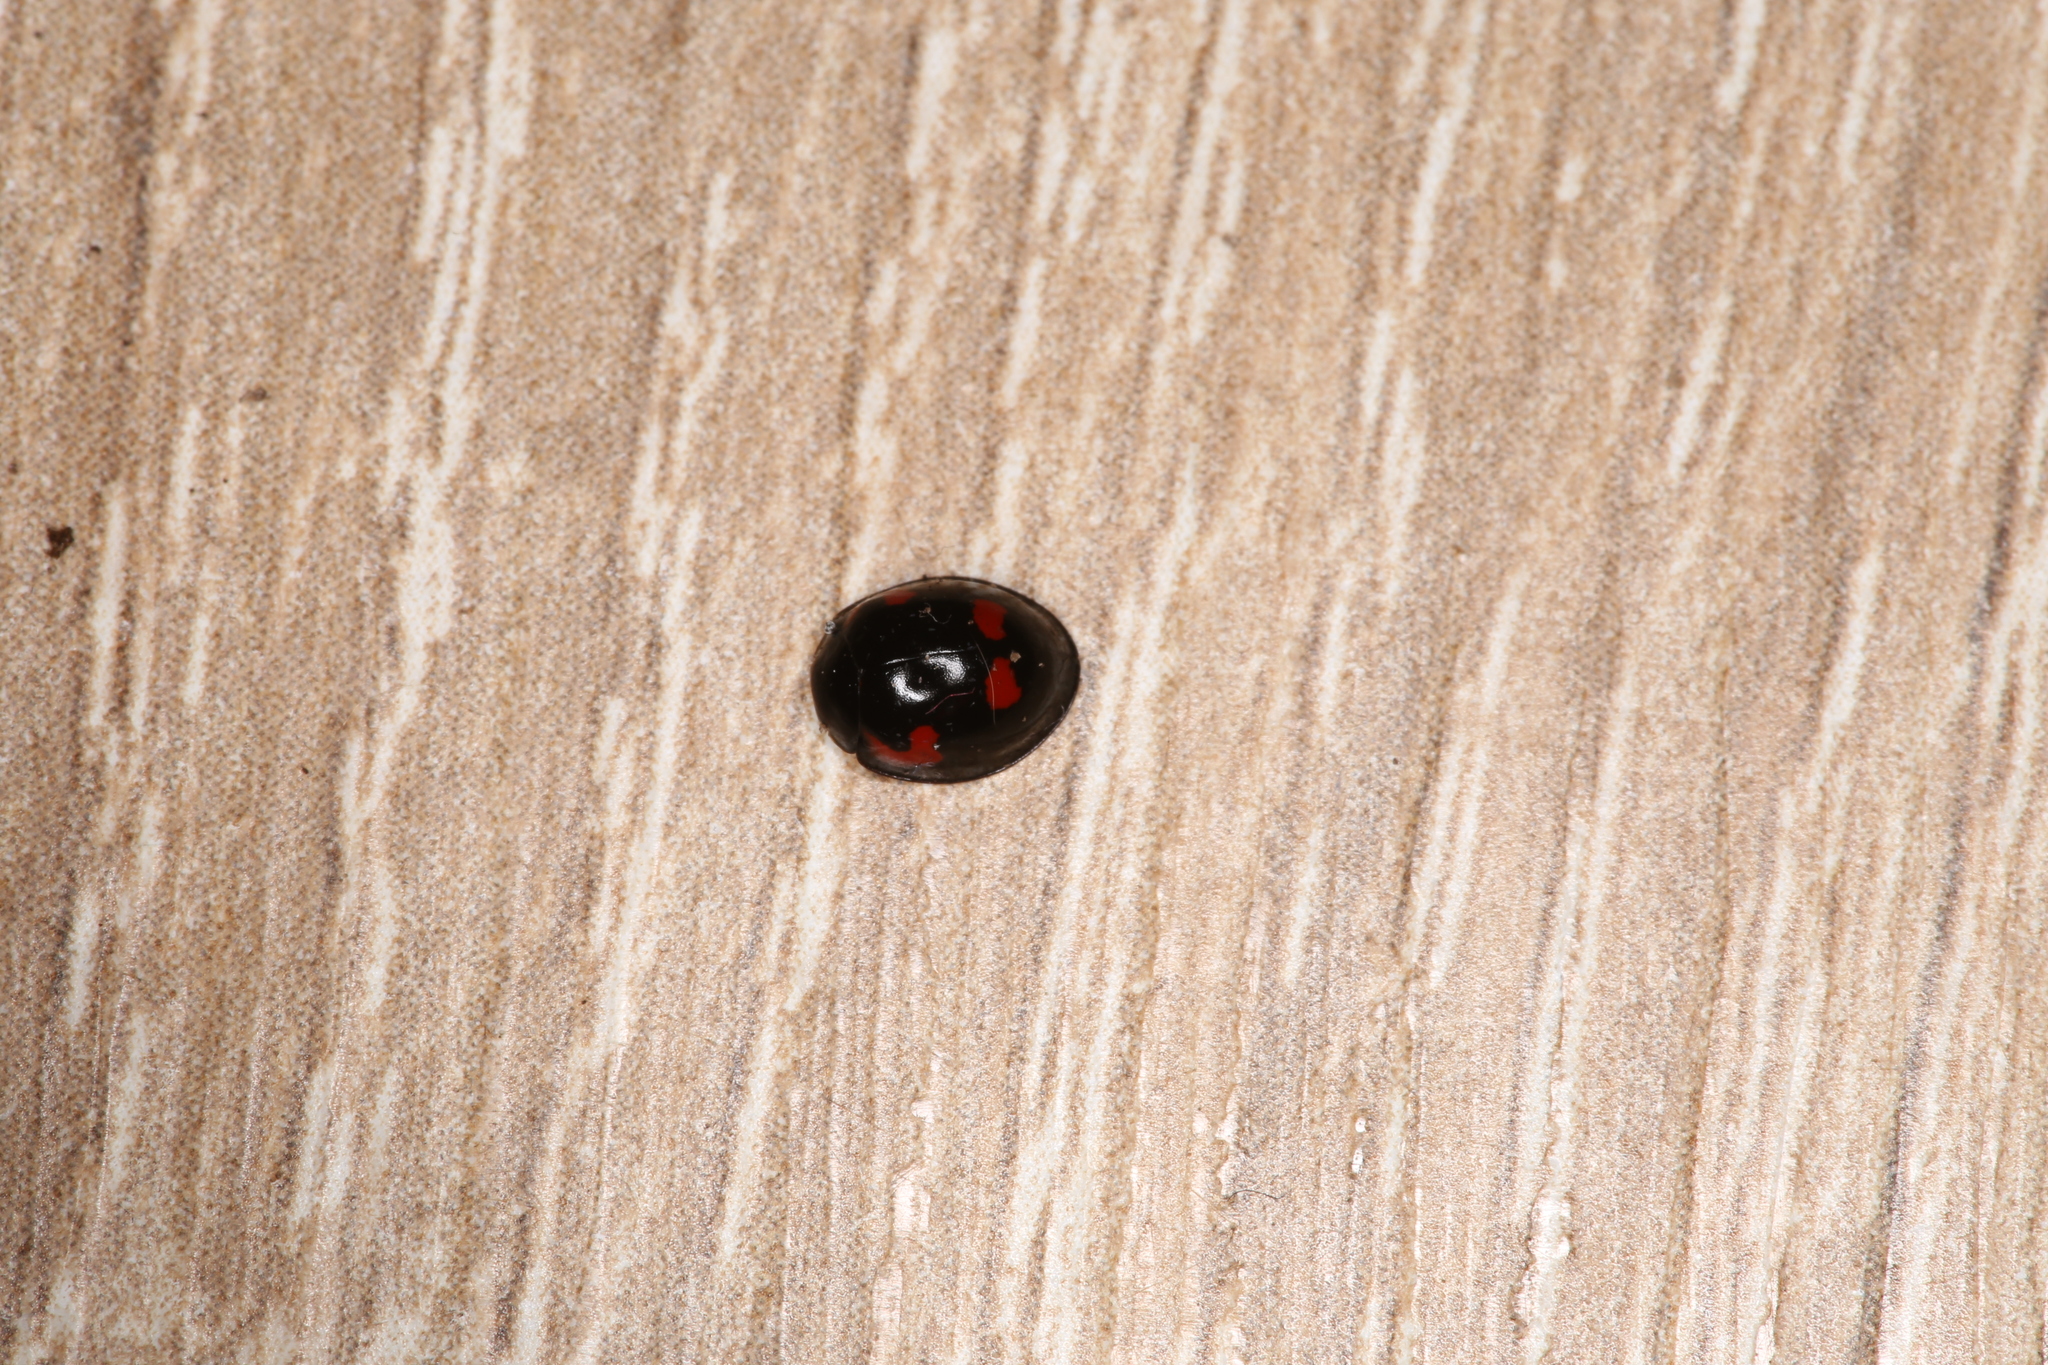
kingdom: Animalia
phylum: Arthropoda
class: Insecta
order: Coleoptera
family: Coccinellidae
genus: Brumus
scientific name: Brumus quadripustulatus
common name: Ladybird beetle
